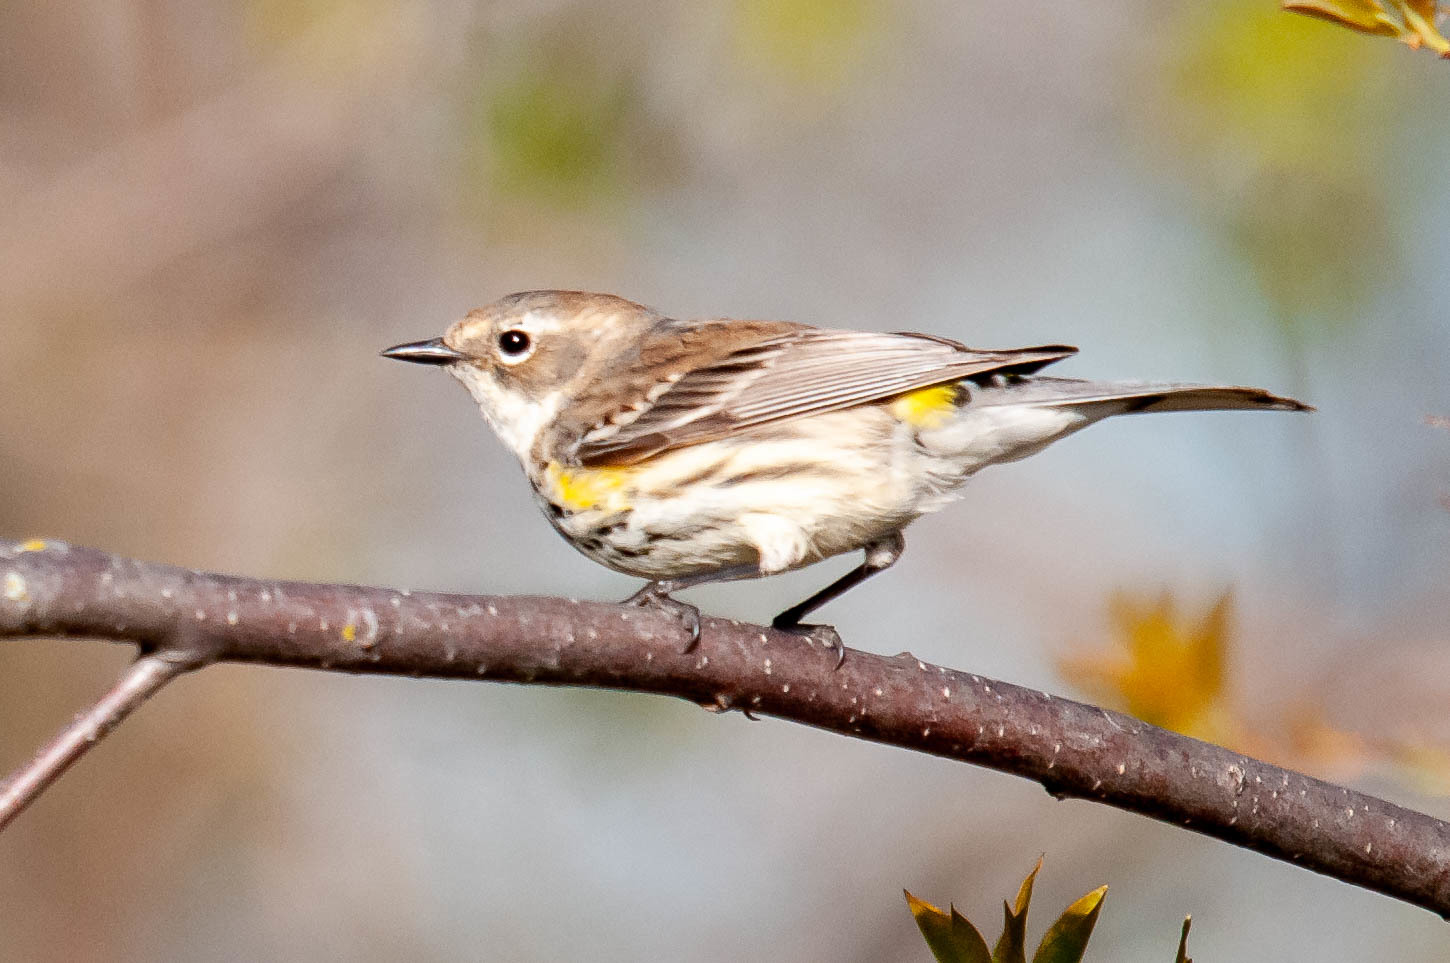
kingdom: Animalia
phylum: Chordata
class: Aves
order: Passeriformes
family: Parulidae
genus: Setophaga
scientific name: Setophaga coronata
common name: Myrtle warbler
